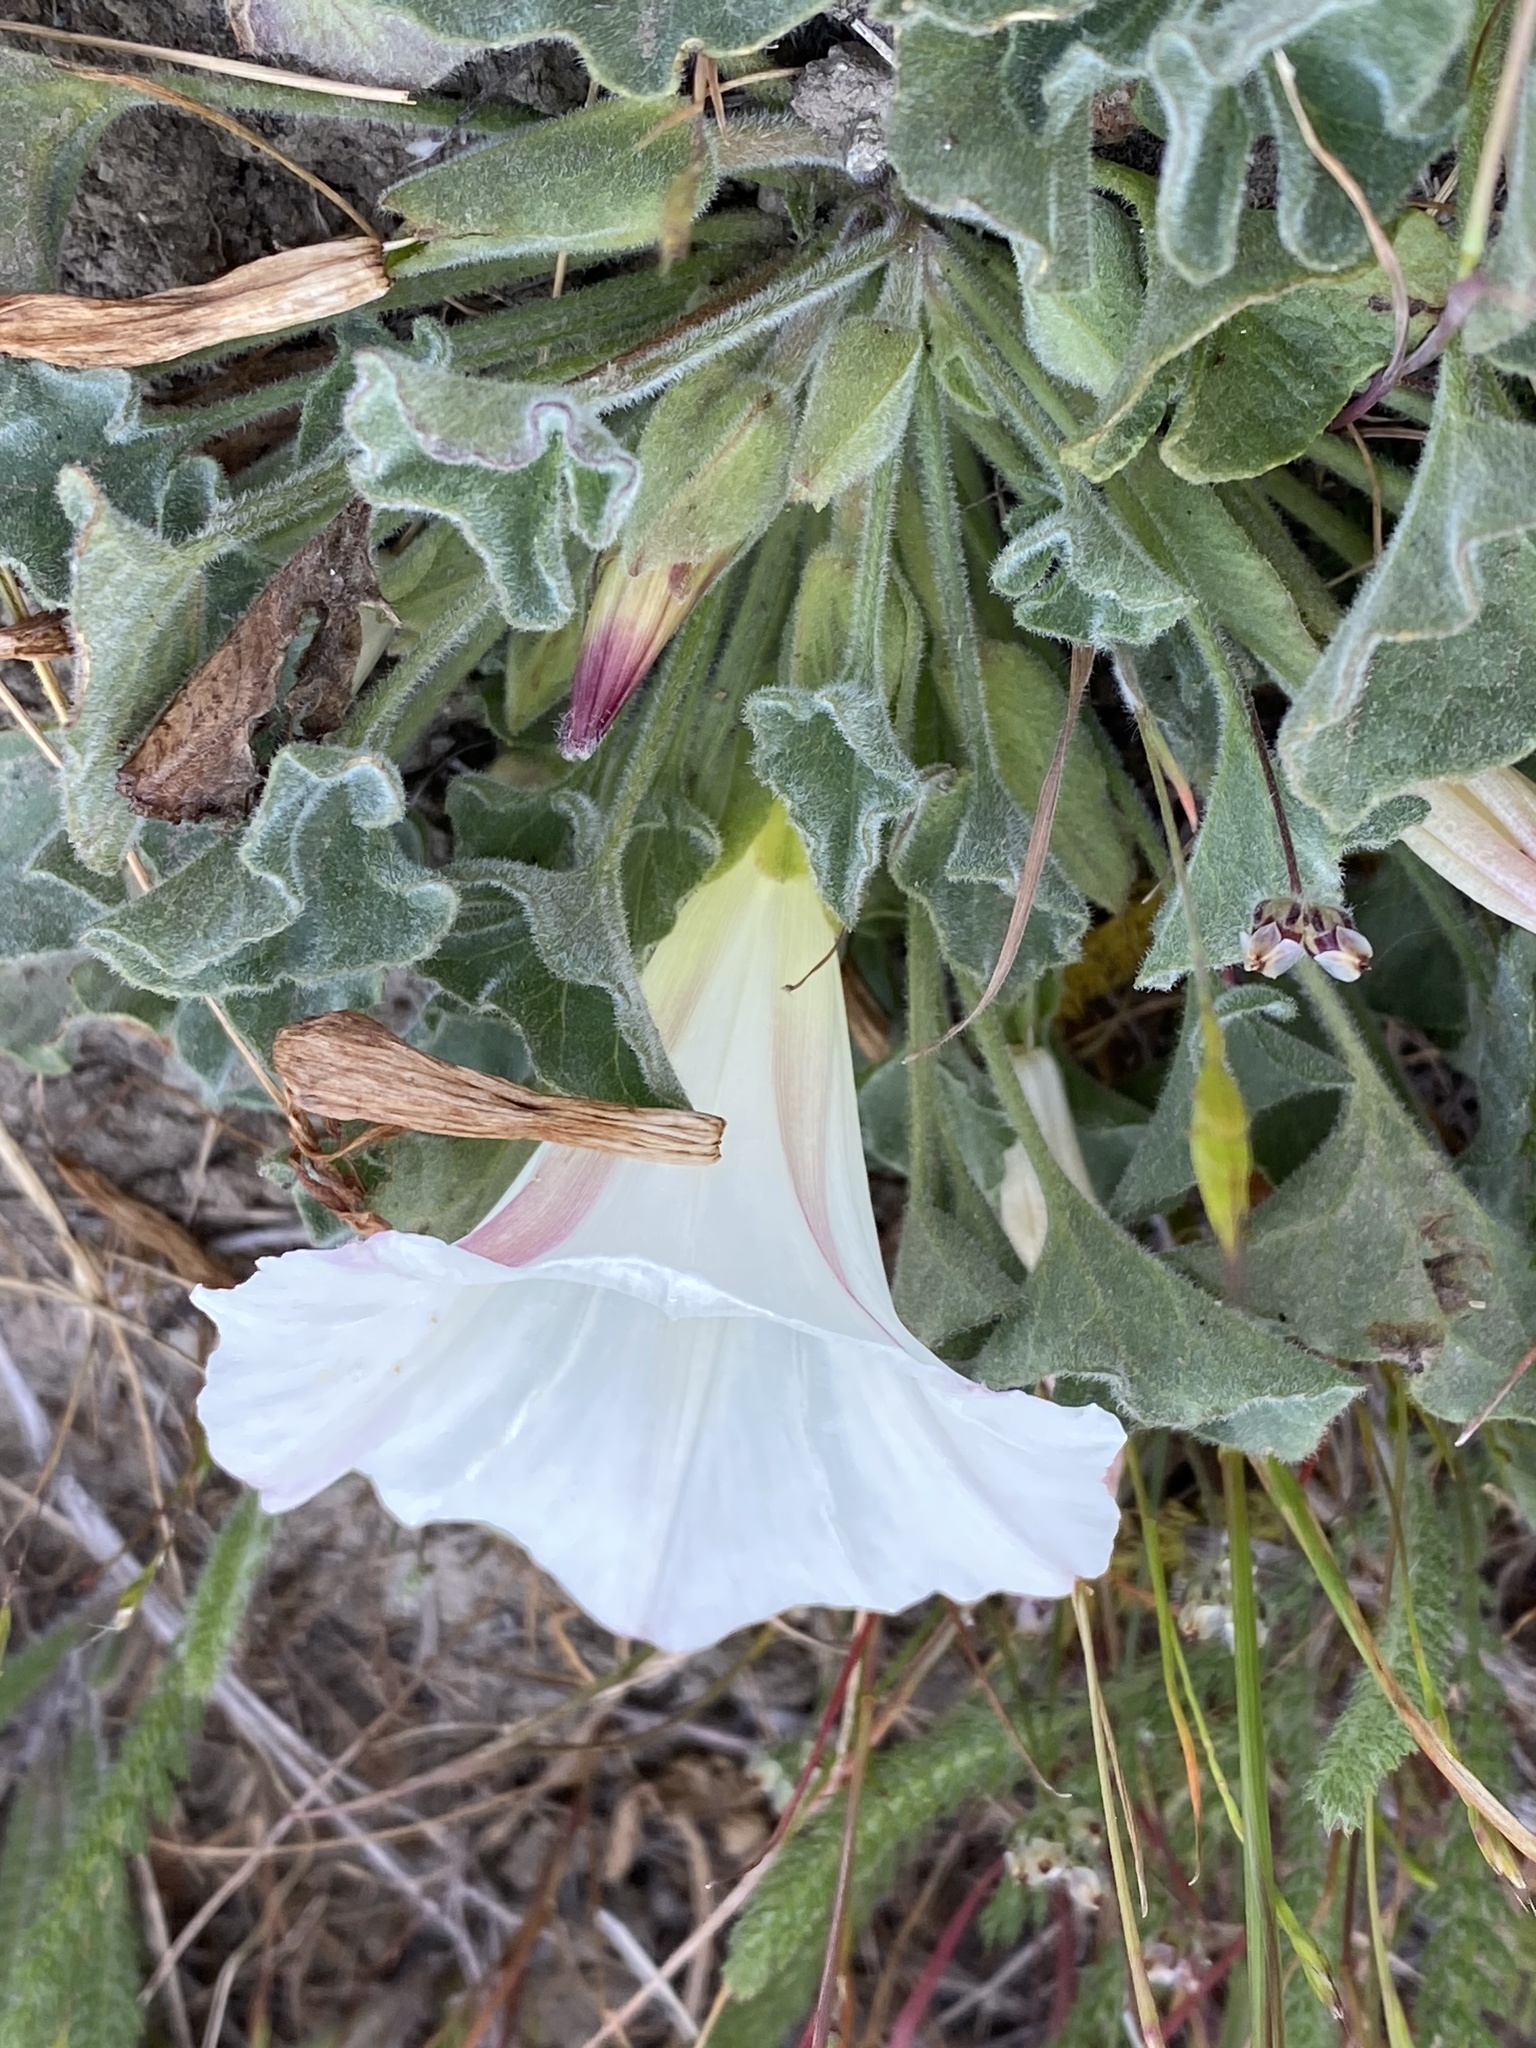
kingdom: Plantae
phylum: Tracheophyta
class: Magnoliopsida
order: Solanales
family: Convolvulaceae
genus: Calystegia
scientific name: Calystegia collina
